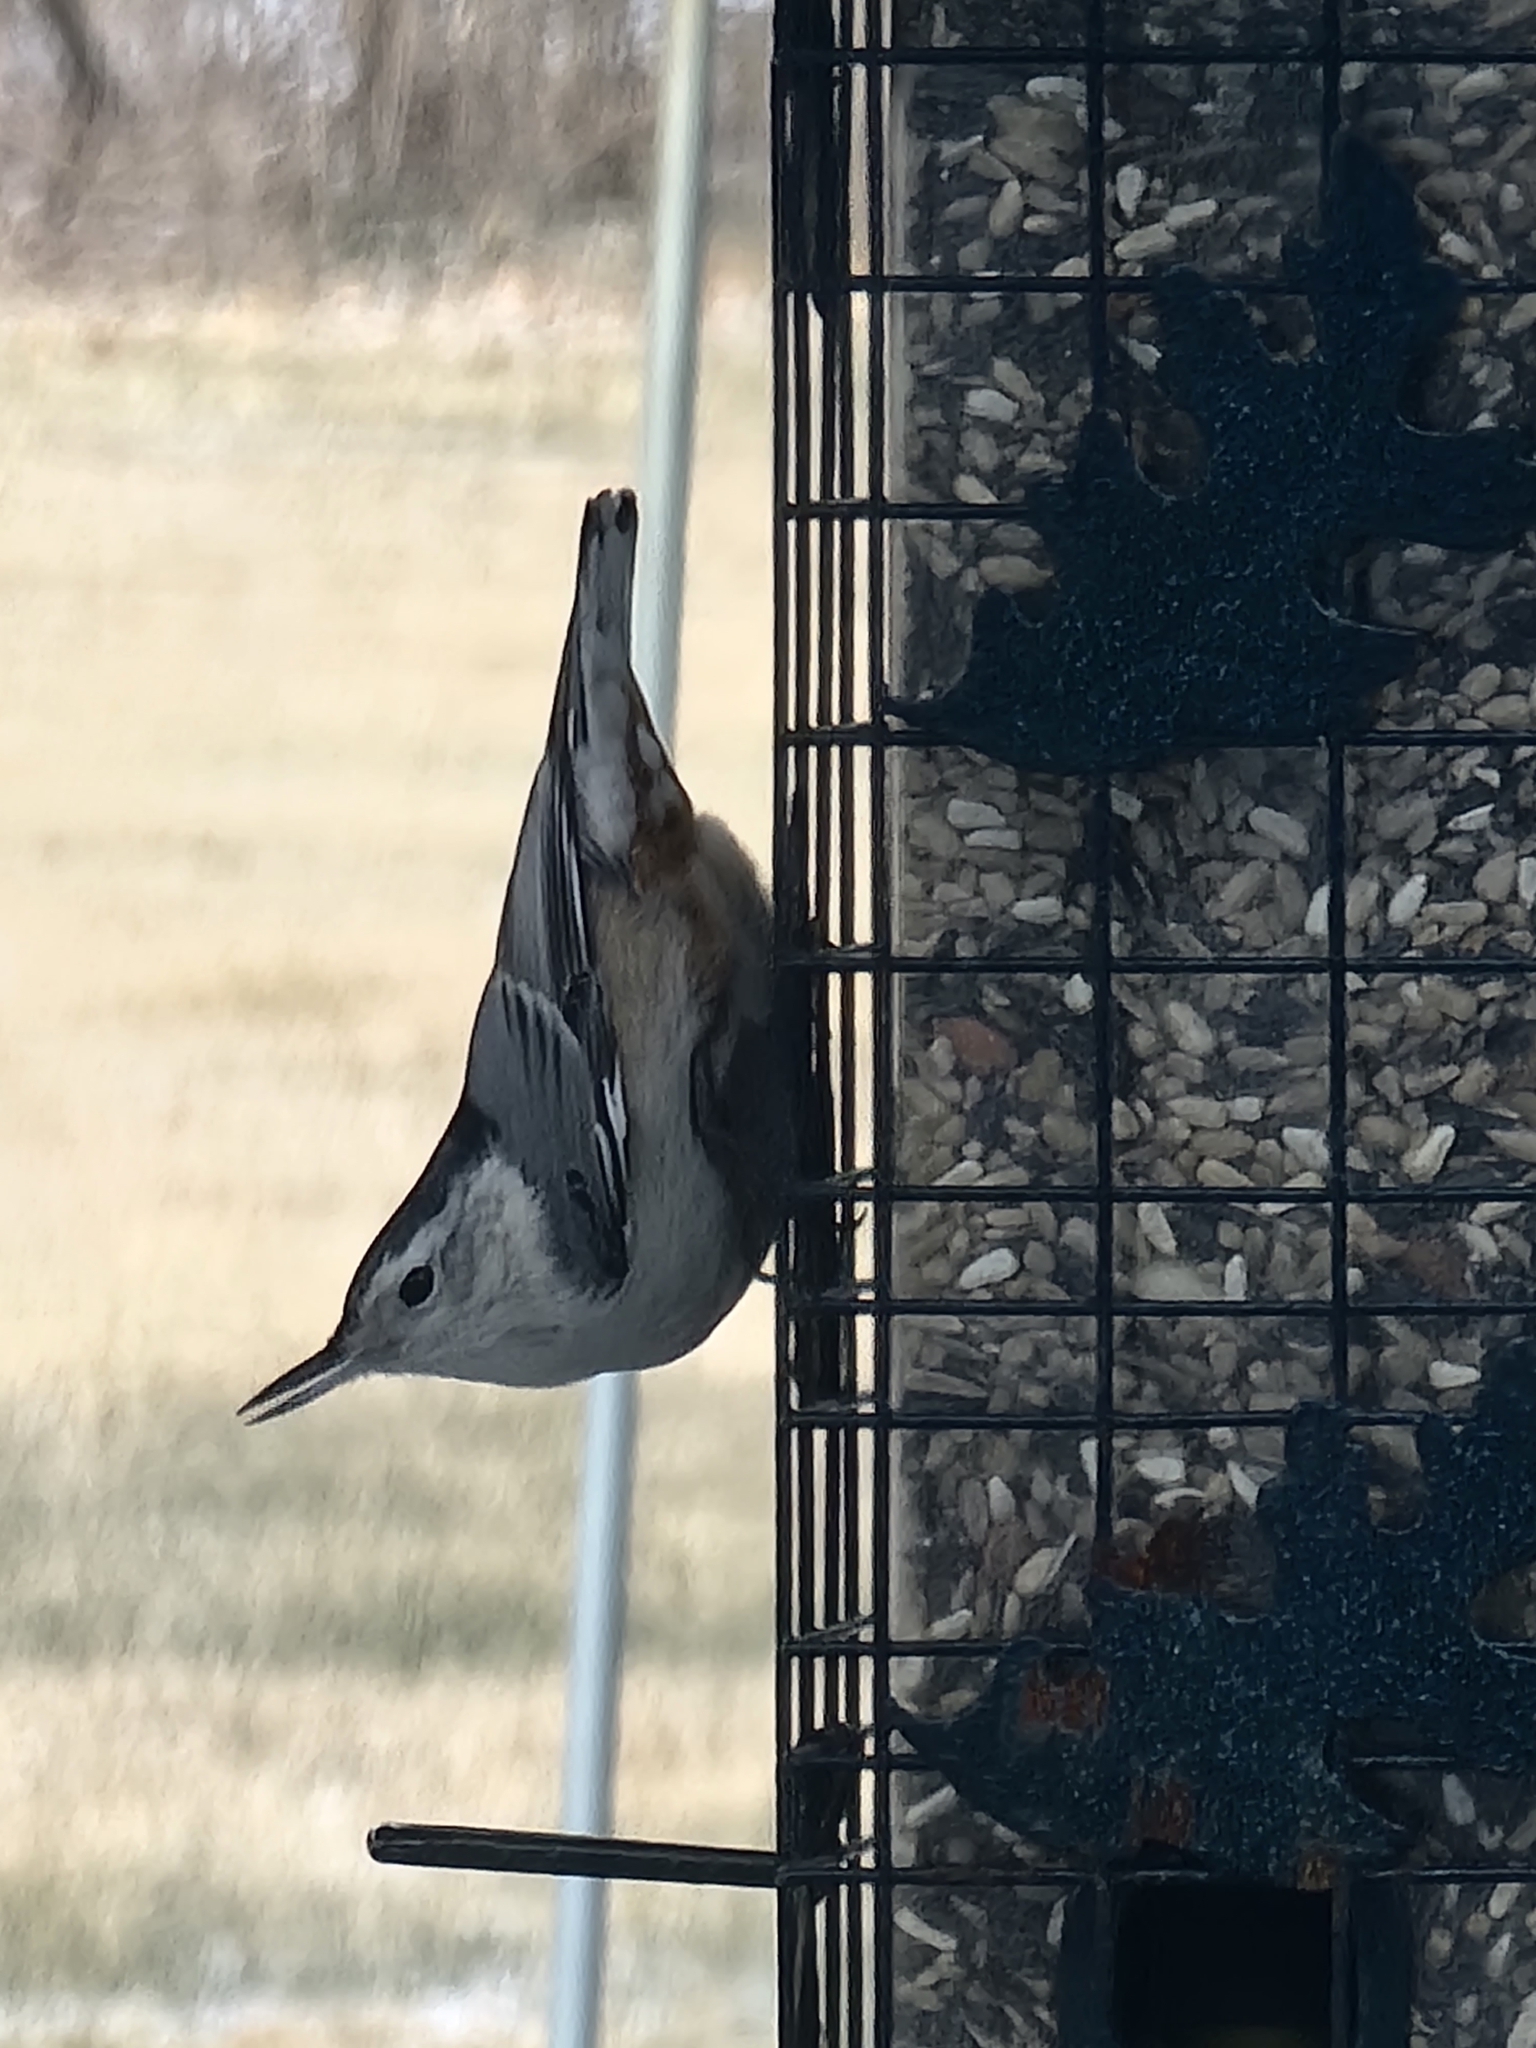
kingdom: Animalia
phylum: Chordata
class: Aves
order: Passeriformes
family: Sittidae
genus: Sitta
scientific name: Sitta carolinensis
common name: White-breasted nuthatch
